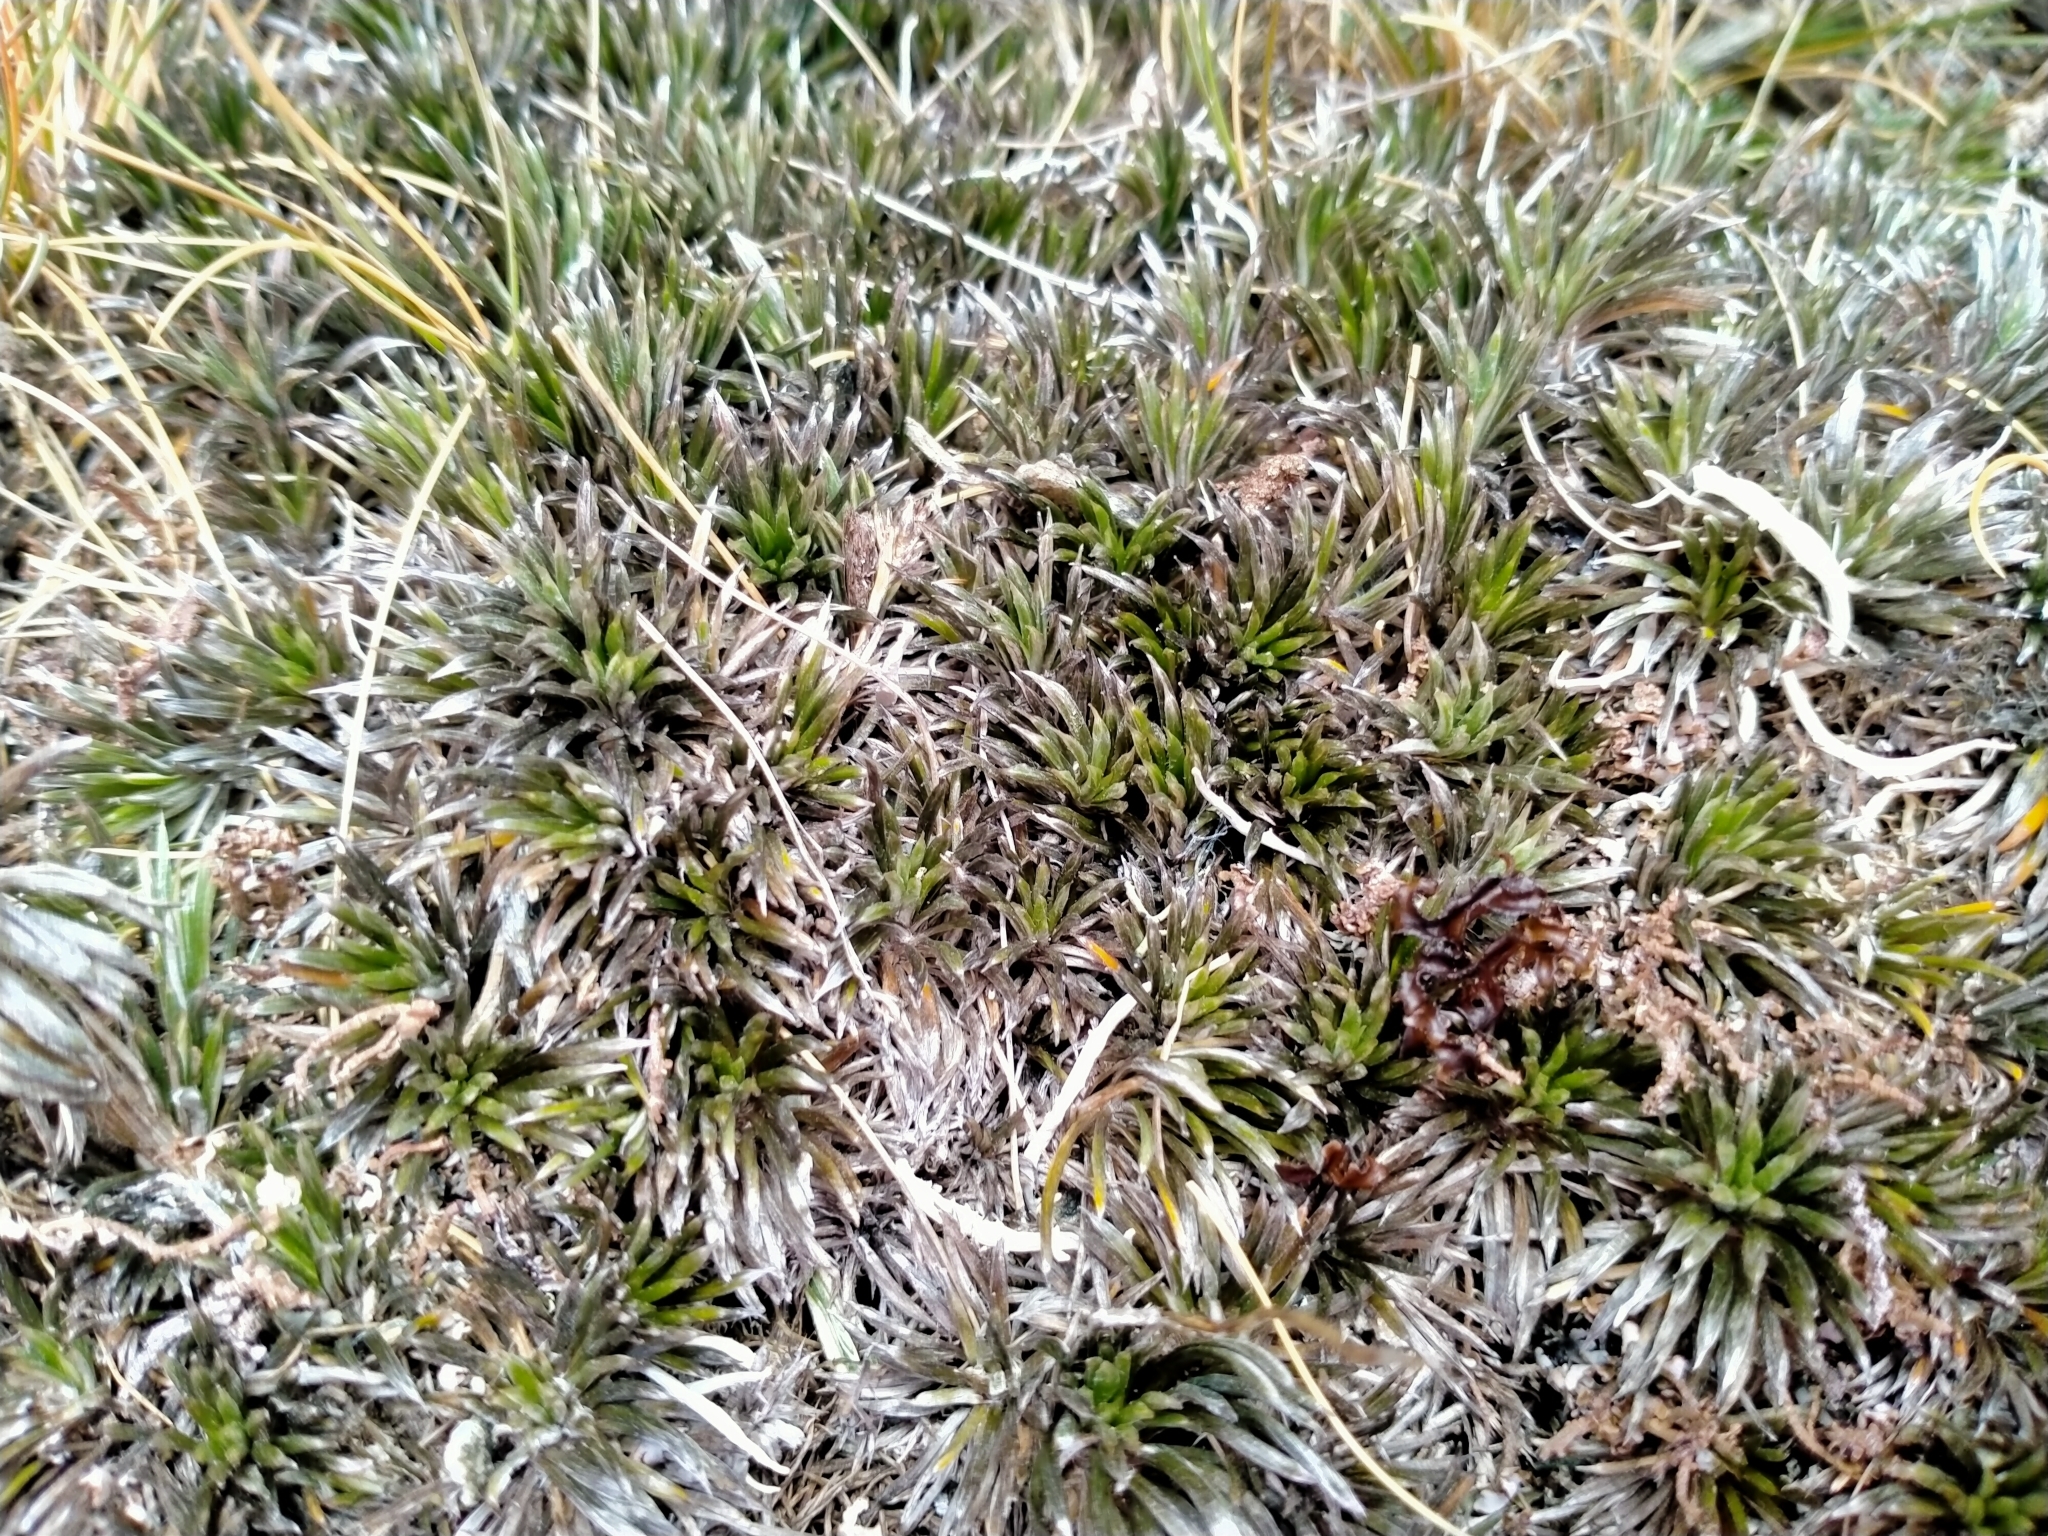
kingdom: Plantae
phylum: Tracheophyta
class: Magnoliopsida
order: Asterales
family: Asteraceae
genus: Celmisia
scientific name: Celmisia laricifolia
